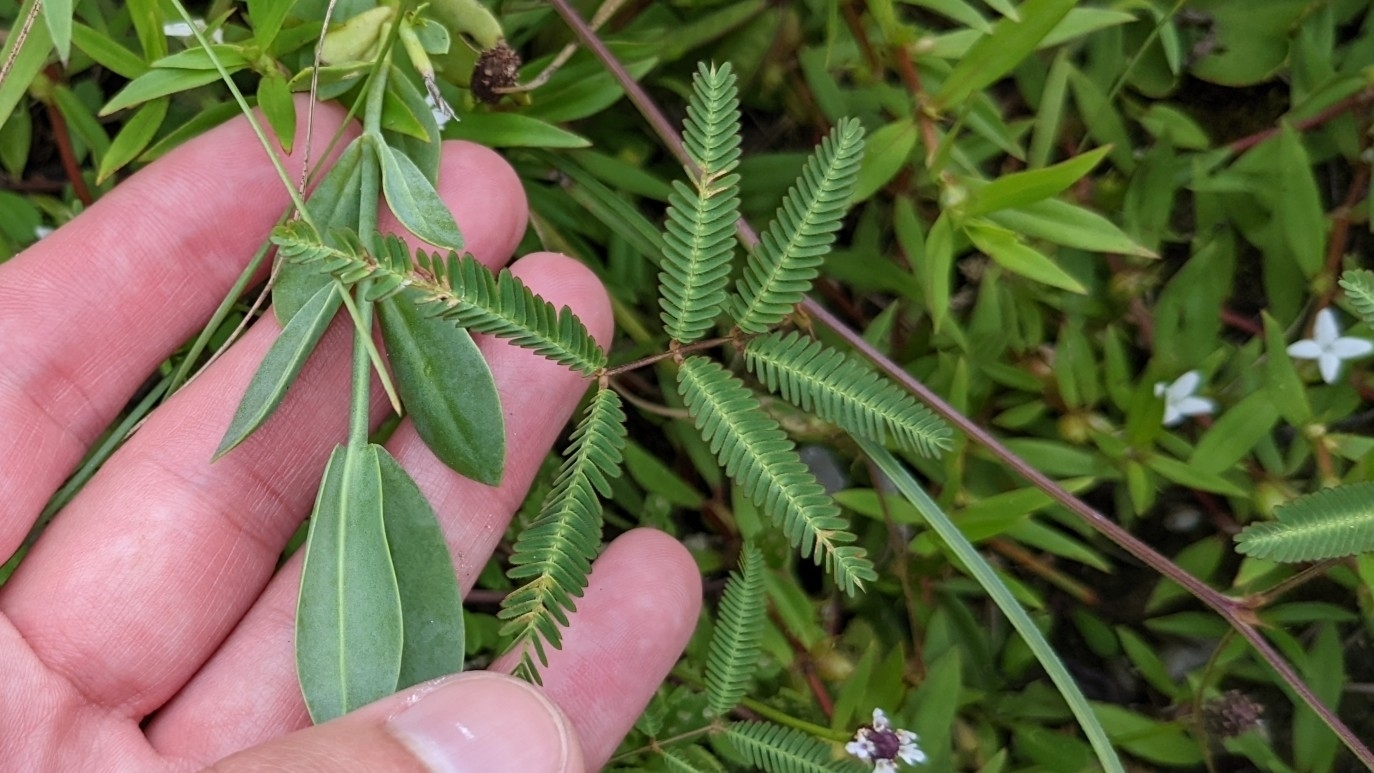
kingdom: Plantae
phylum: Tracheophyta
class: Magnoliopsida
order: Fabales
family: Fabaceae
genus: Neptunia
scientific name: Neptunia pubescens
